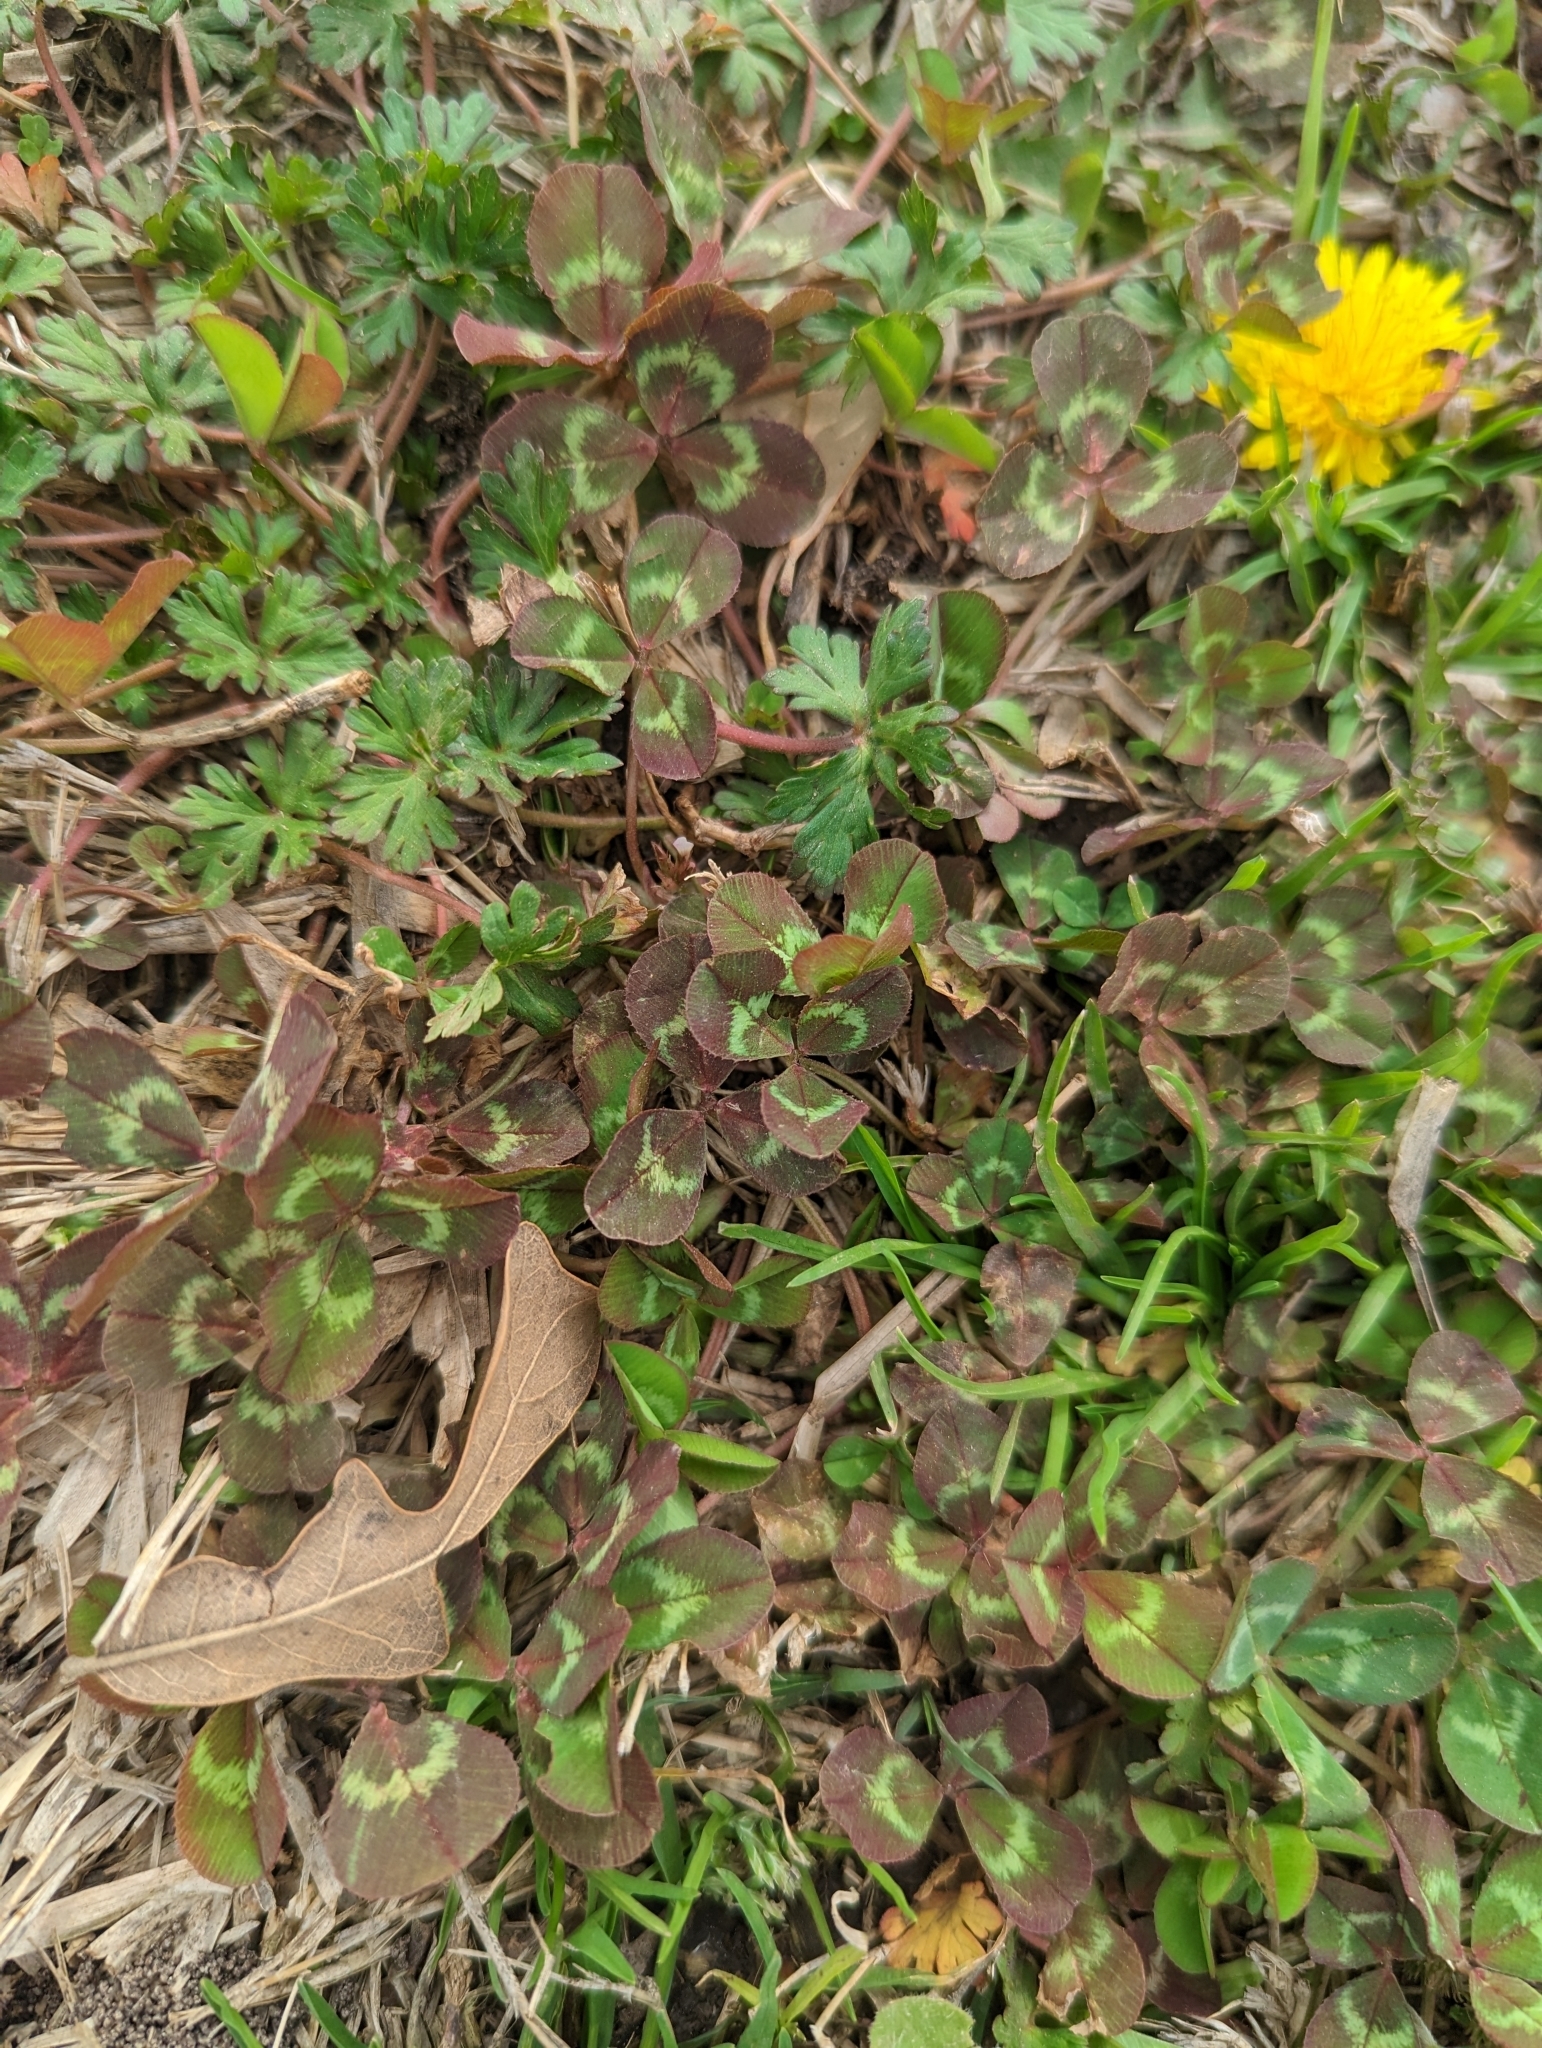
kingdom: Plantae
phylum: Tracheophyta
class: Magnoliopsida
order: Fabales
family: Fabaceae
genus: Trifolium
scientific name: Trifolium repens
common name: White clover
